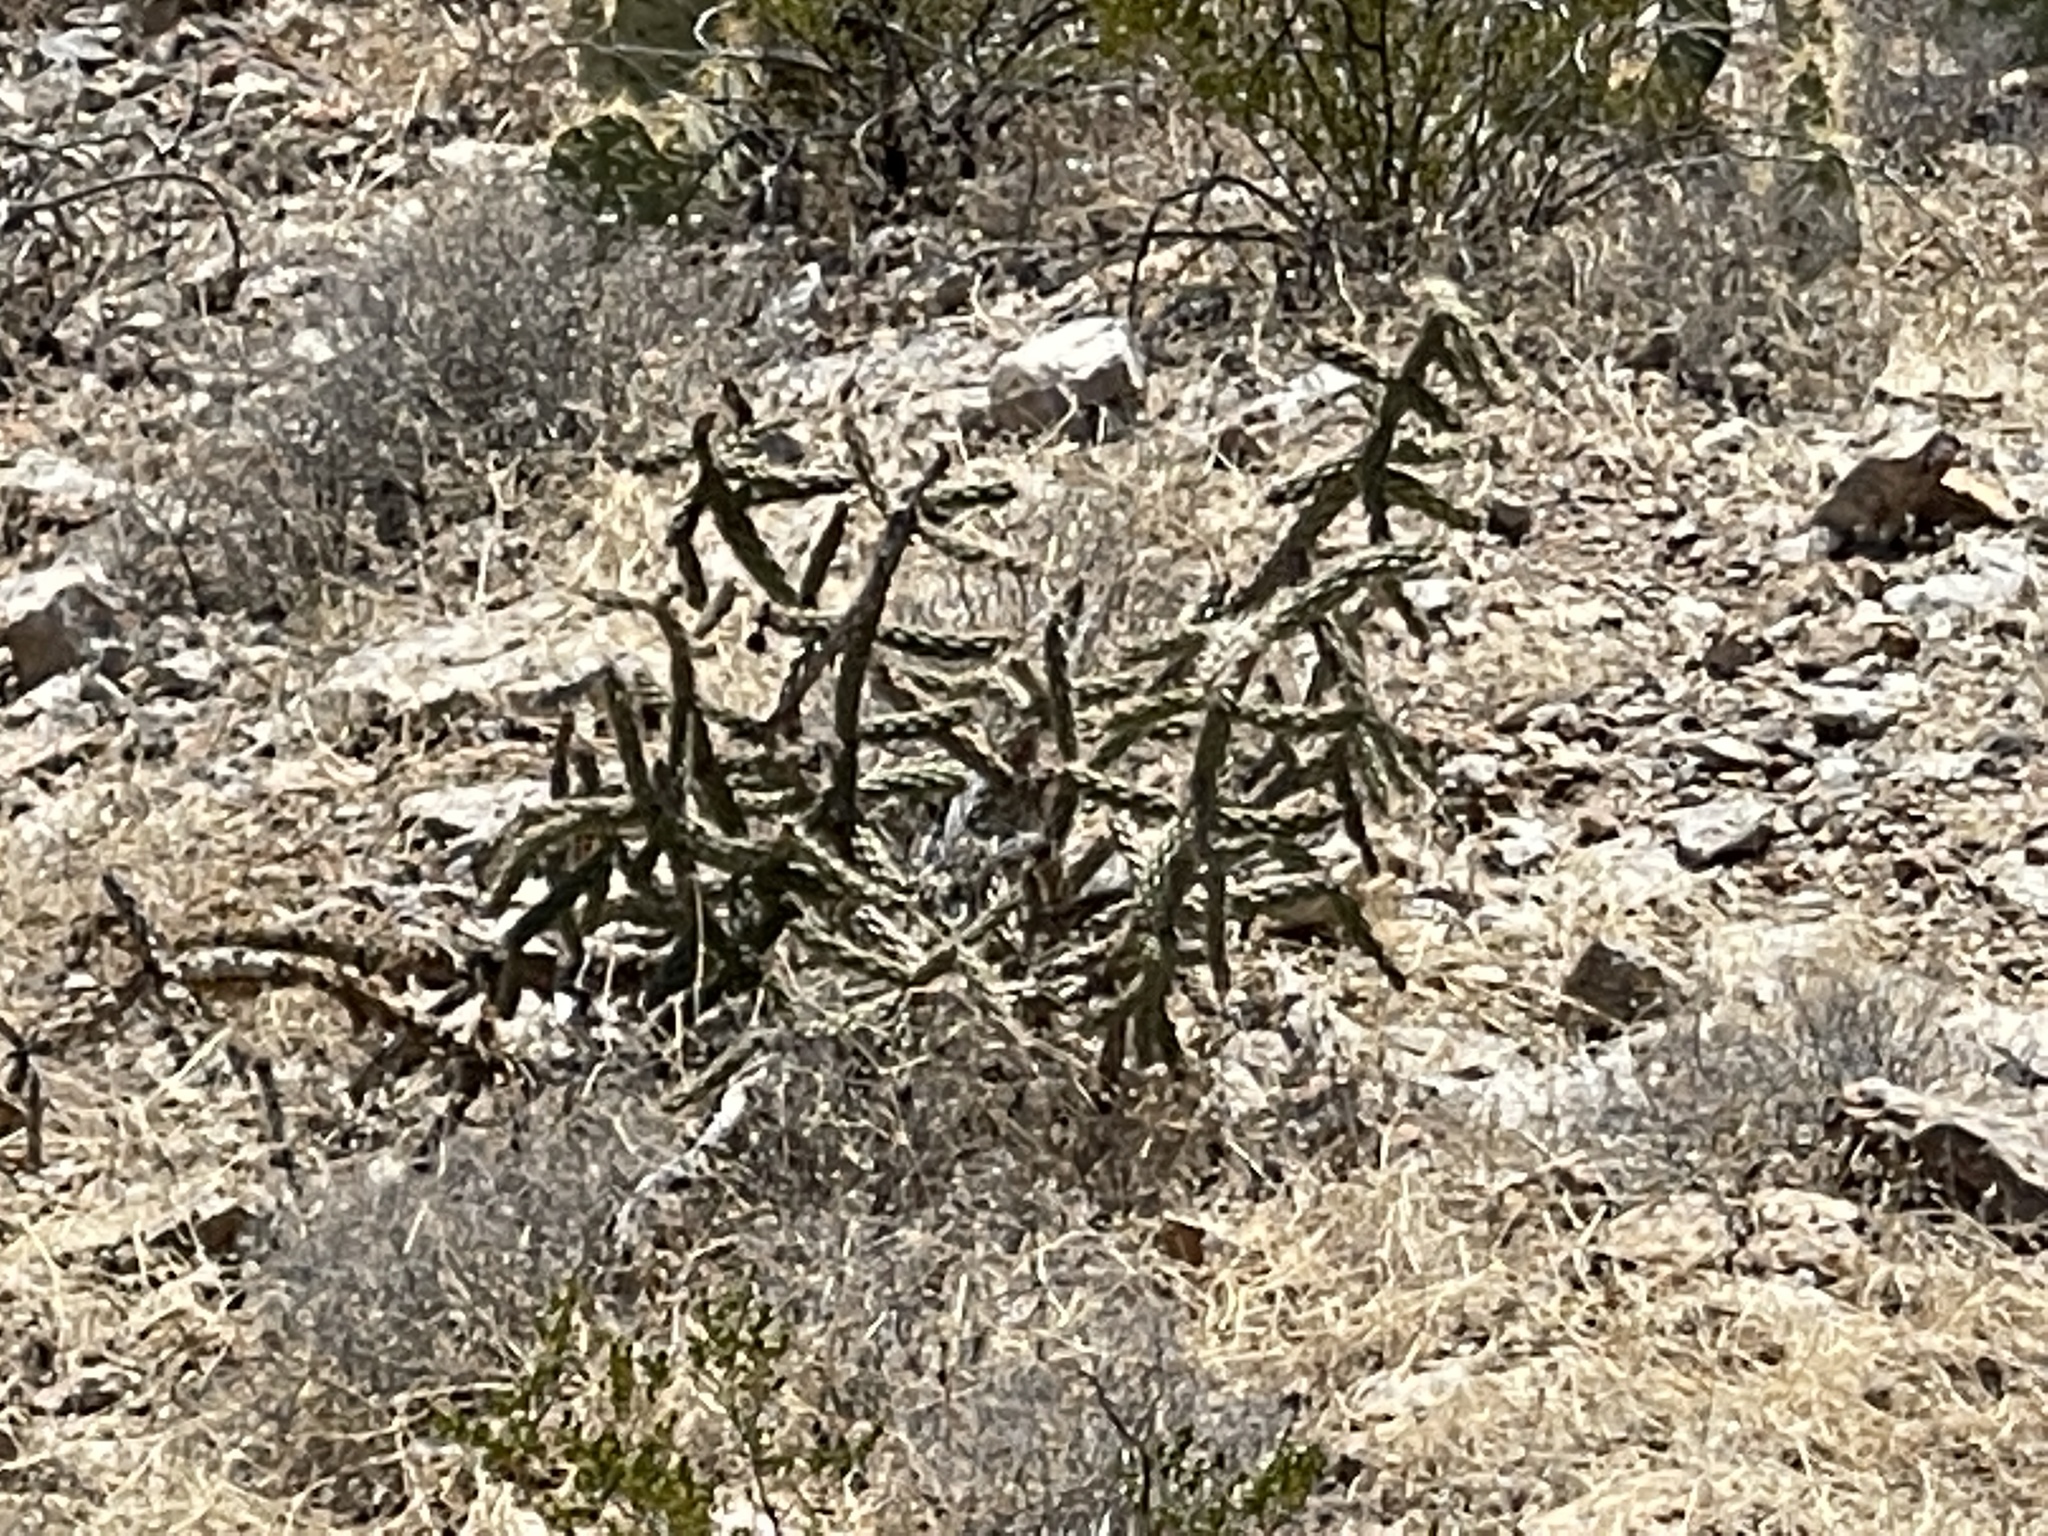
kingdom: Plantae
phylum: Tracheophyta
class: Magnoliopsida
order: Caryophyllales
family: Cactaceae
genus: Cylindropuntia
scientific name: Cylindropuntia imbricata
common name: Candelabrum cactus
